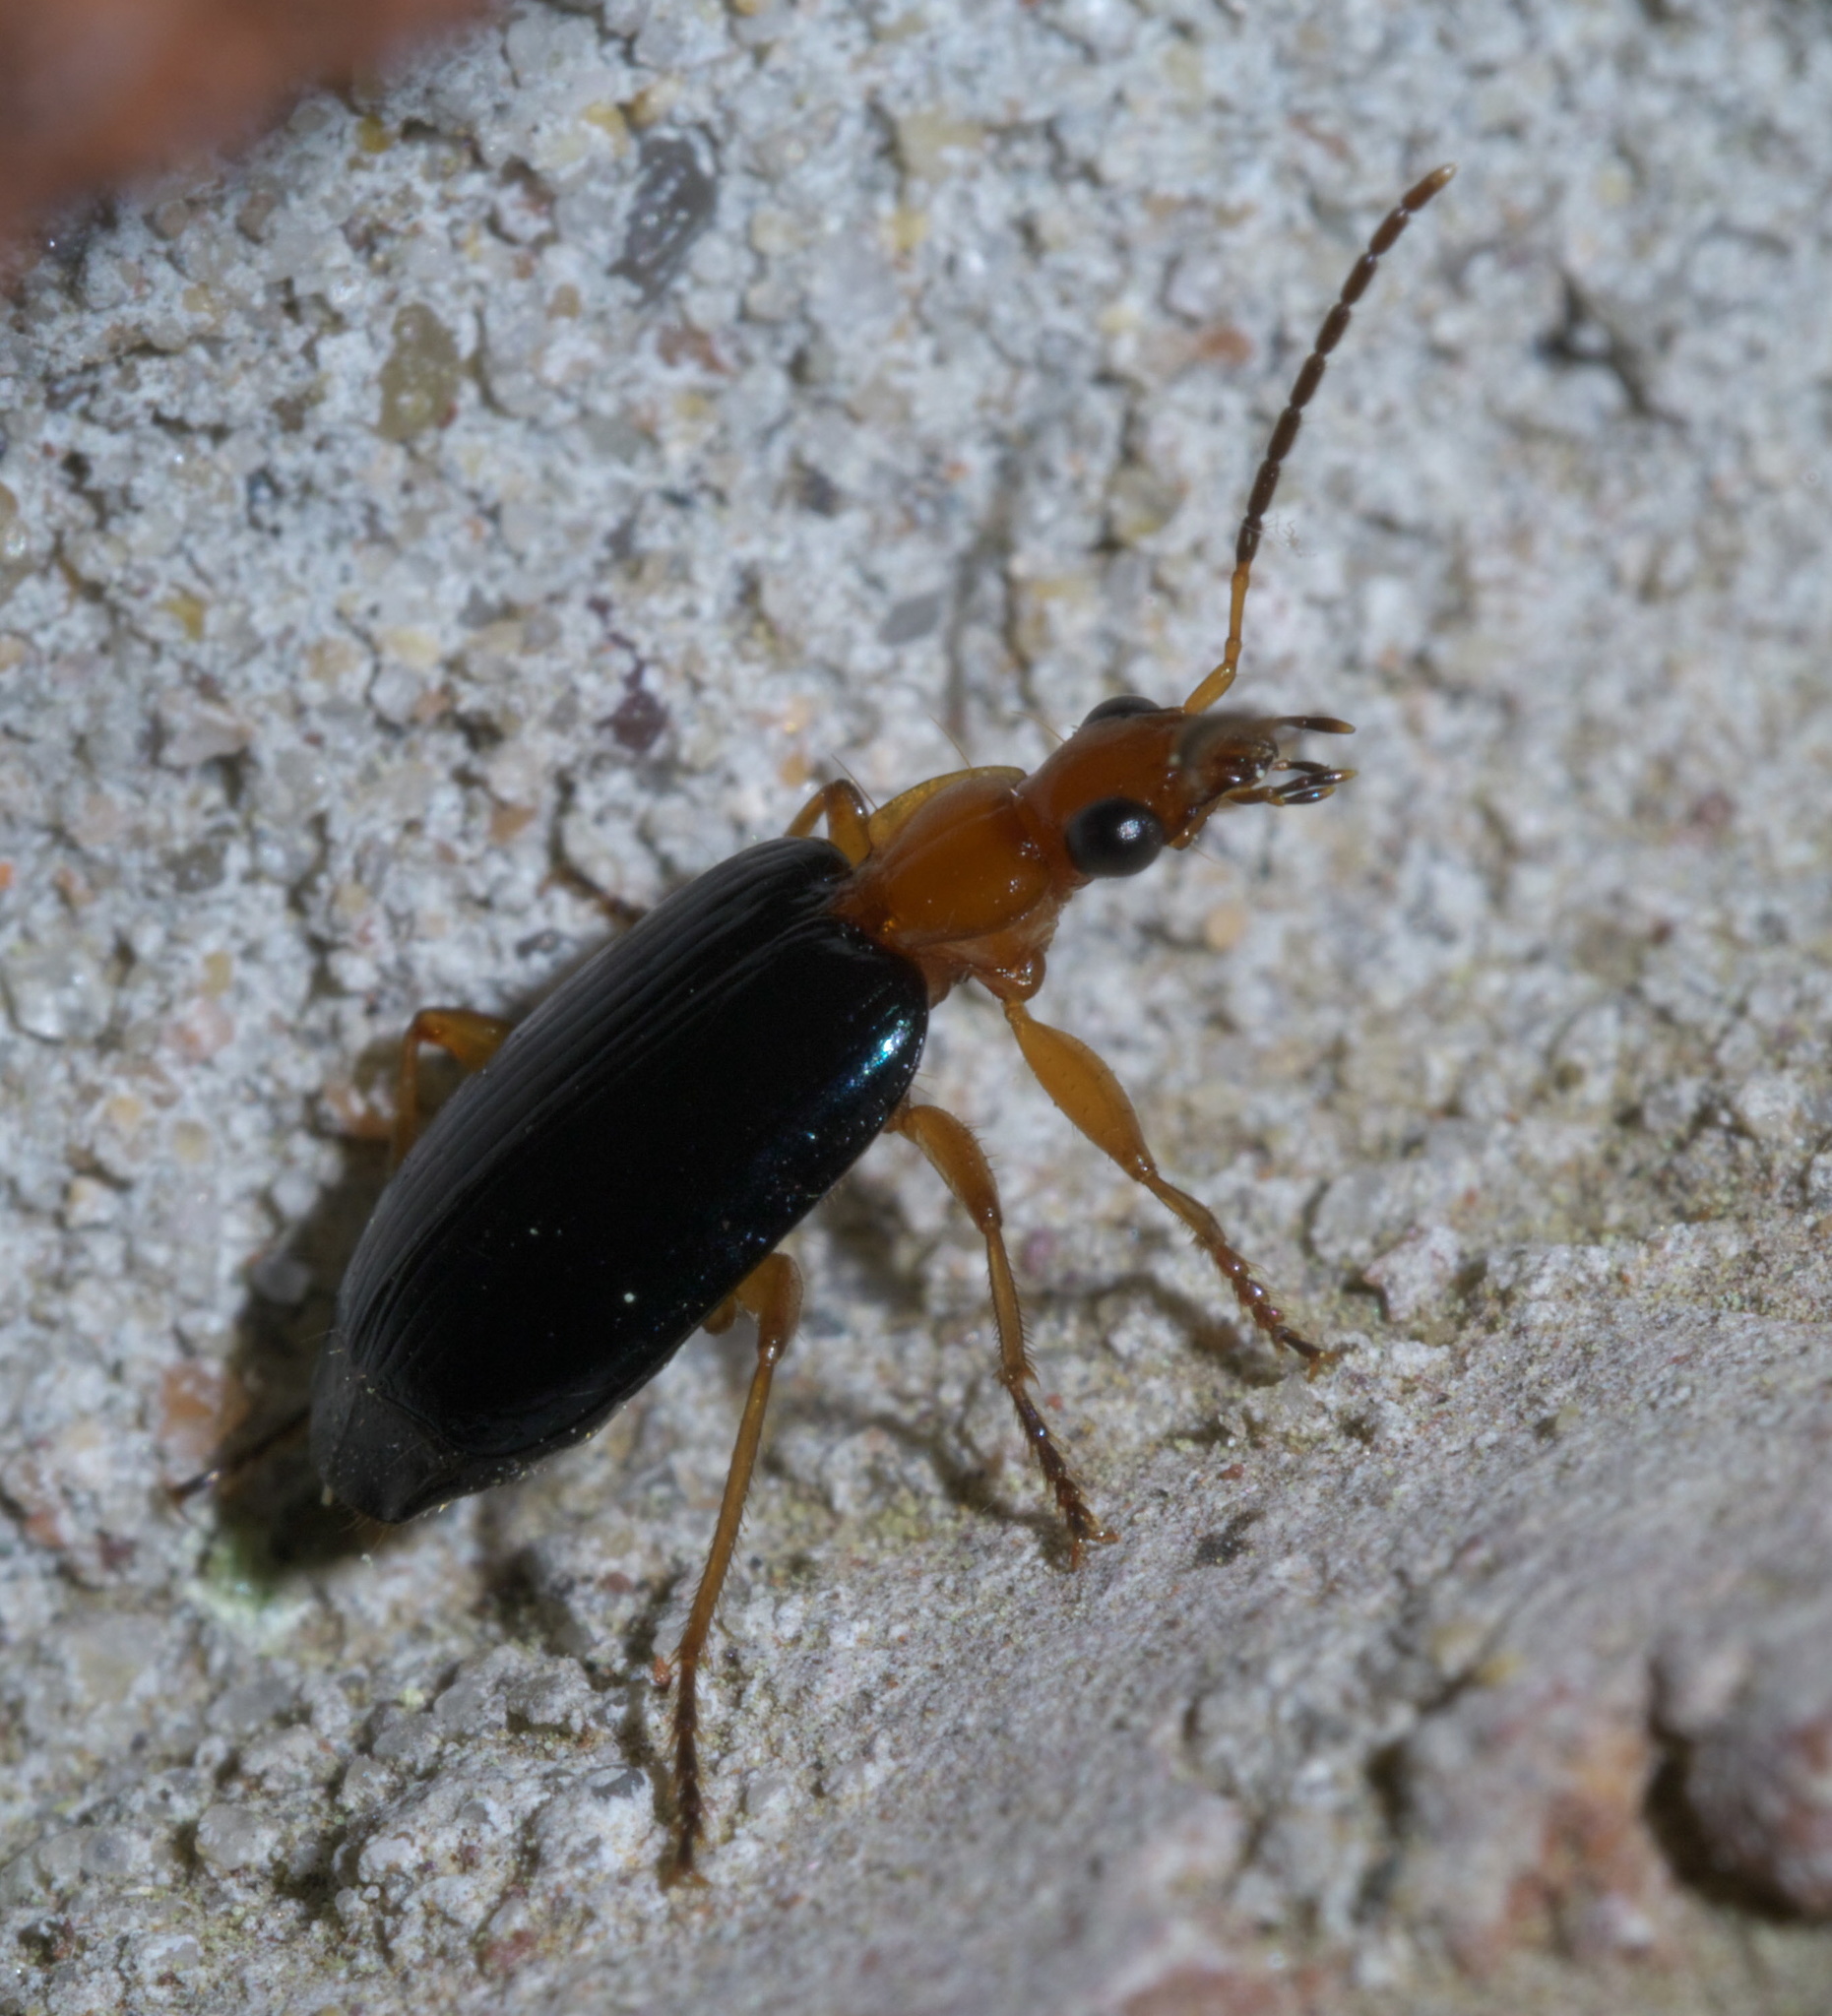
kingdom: Animalia
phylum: Arthropoda
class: Insecta
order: Coleoptera
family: Carabidae
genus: Lebia
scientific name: Lebia atriventris
